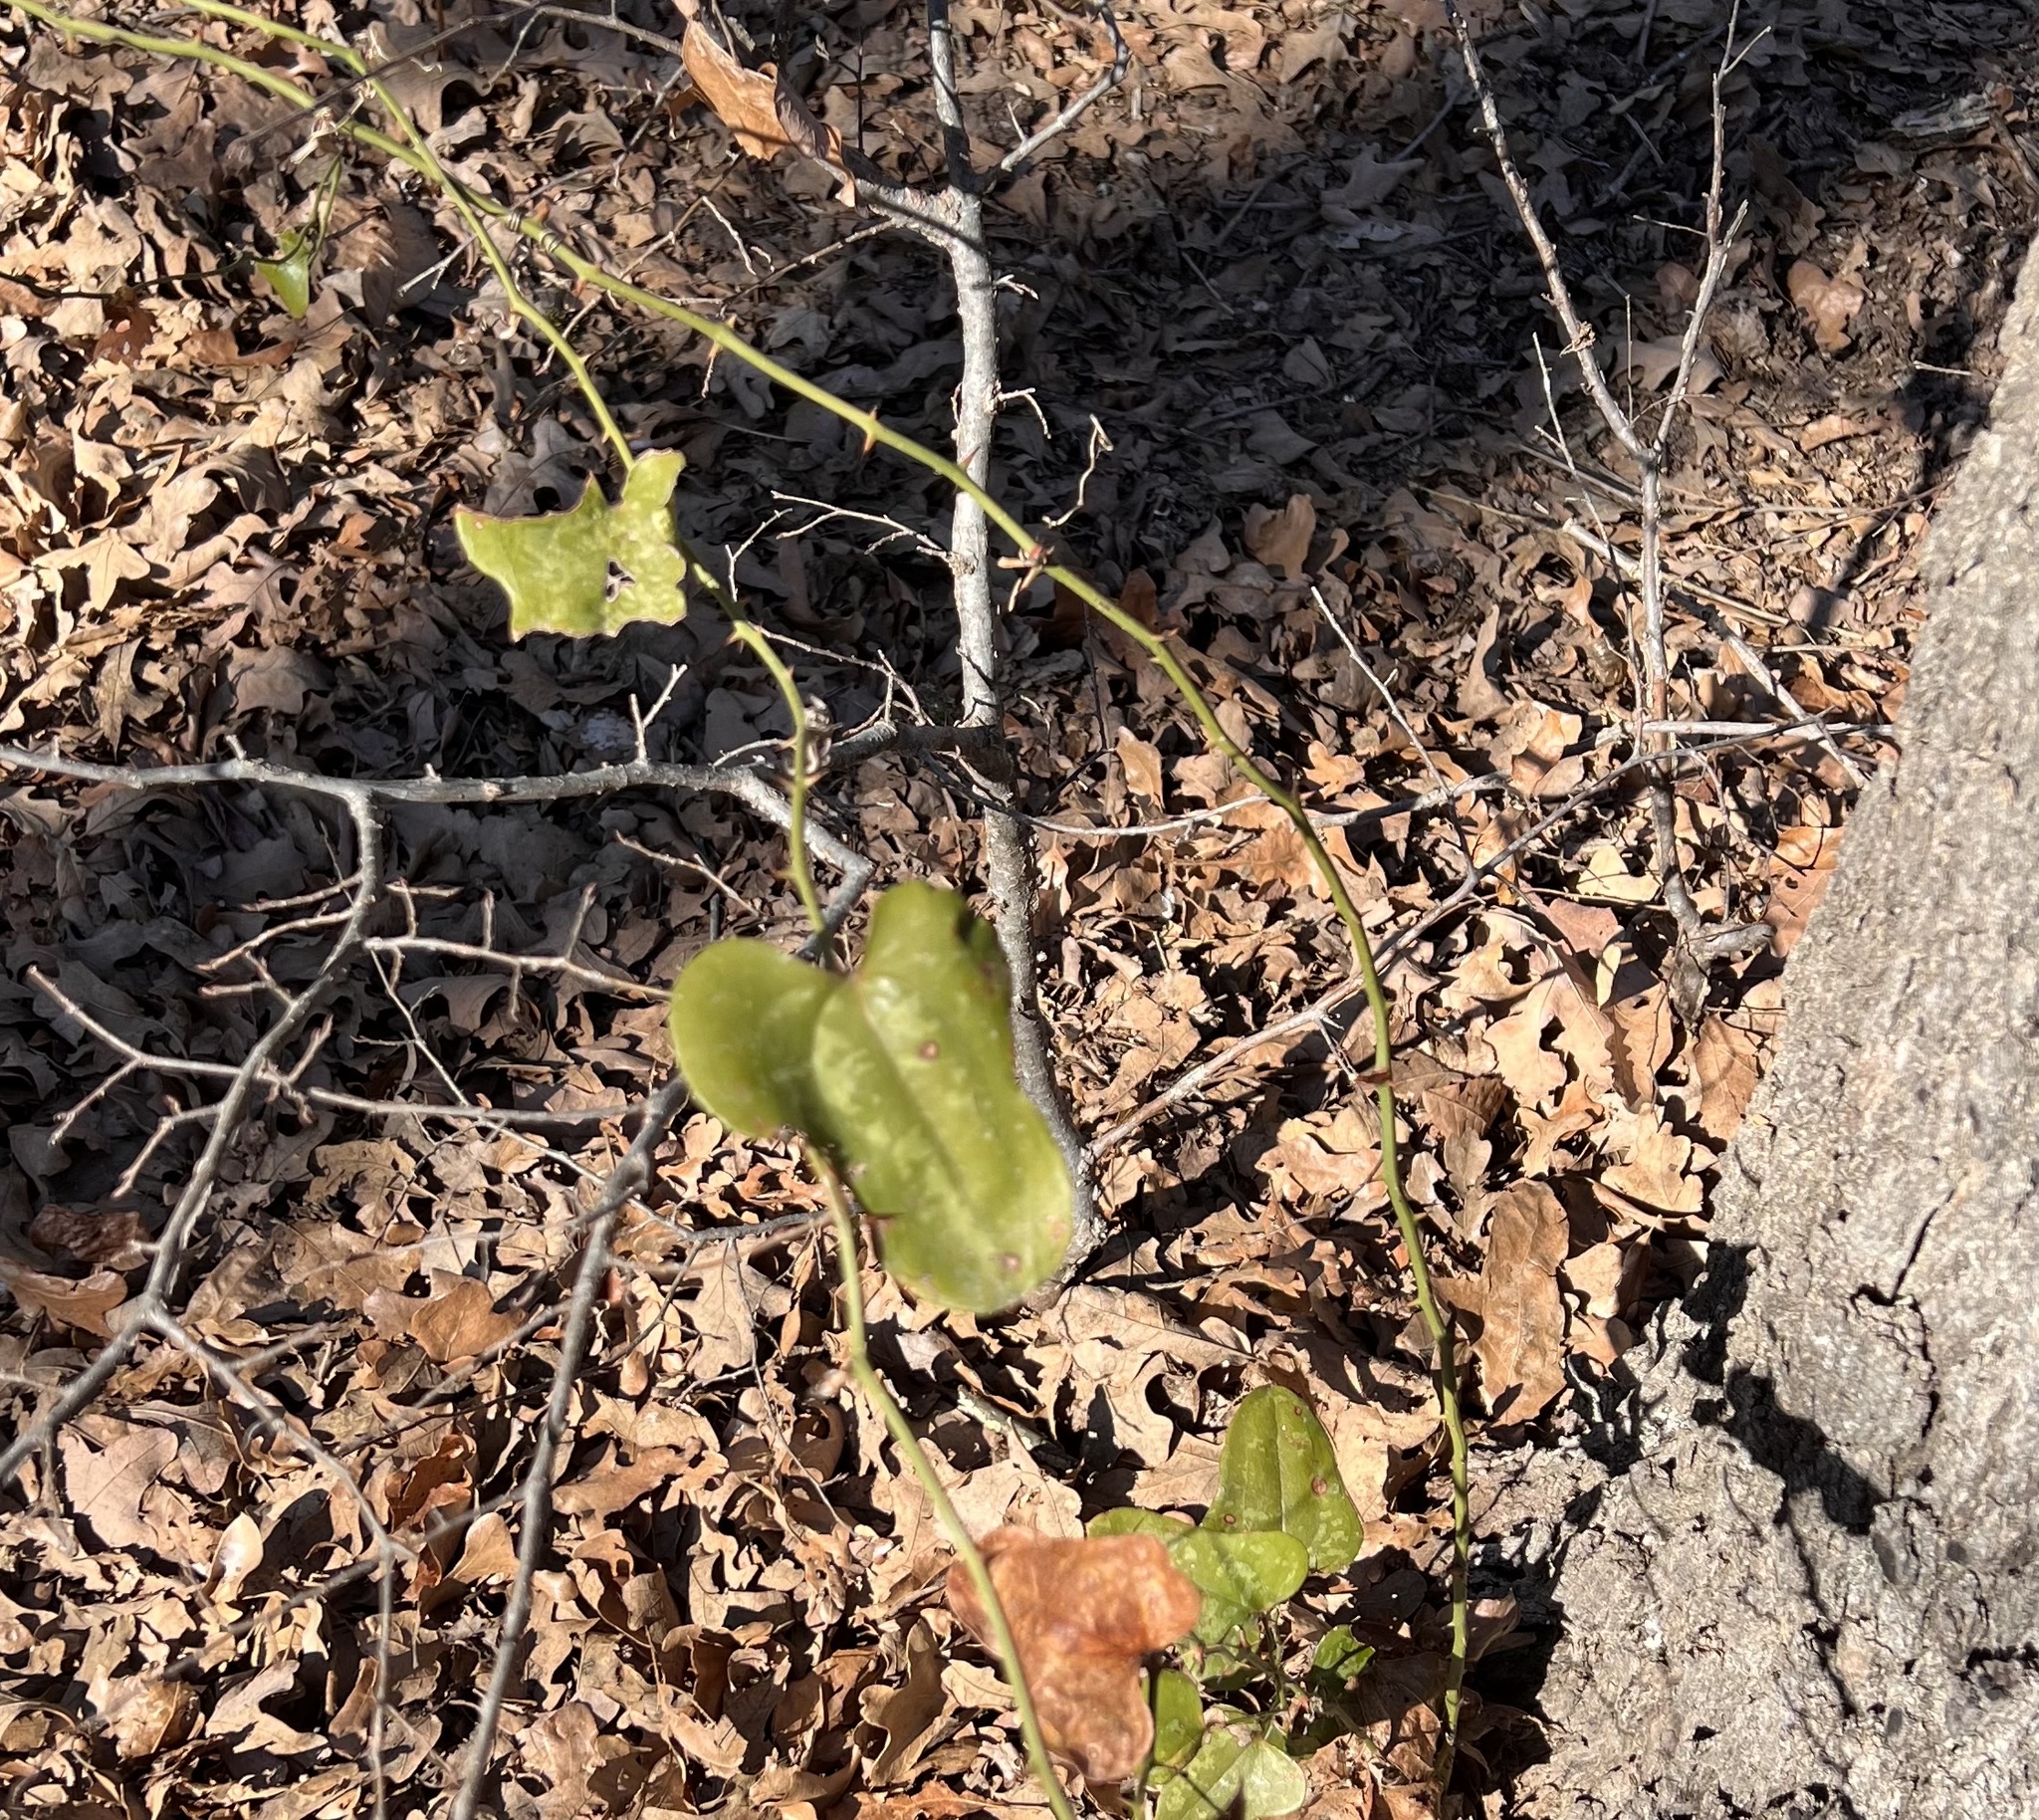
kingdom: Plantae
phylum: Tracheophyta
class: Liliopsida
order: Liliales
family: Smilacaceae
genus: Smilax
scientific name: Smilax bona-nox
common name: Catbrier
